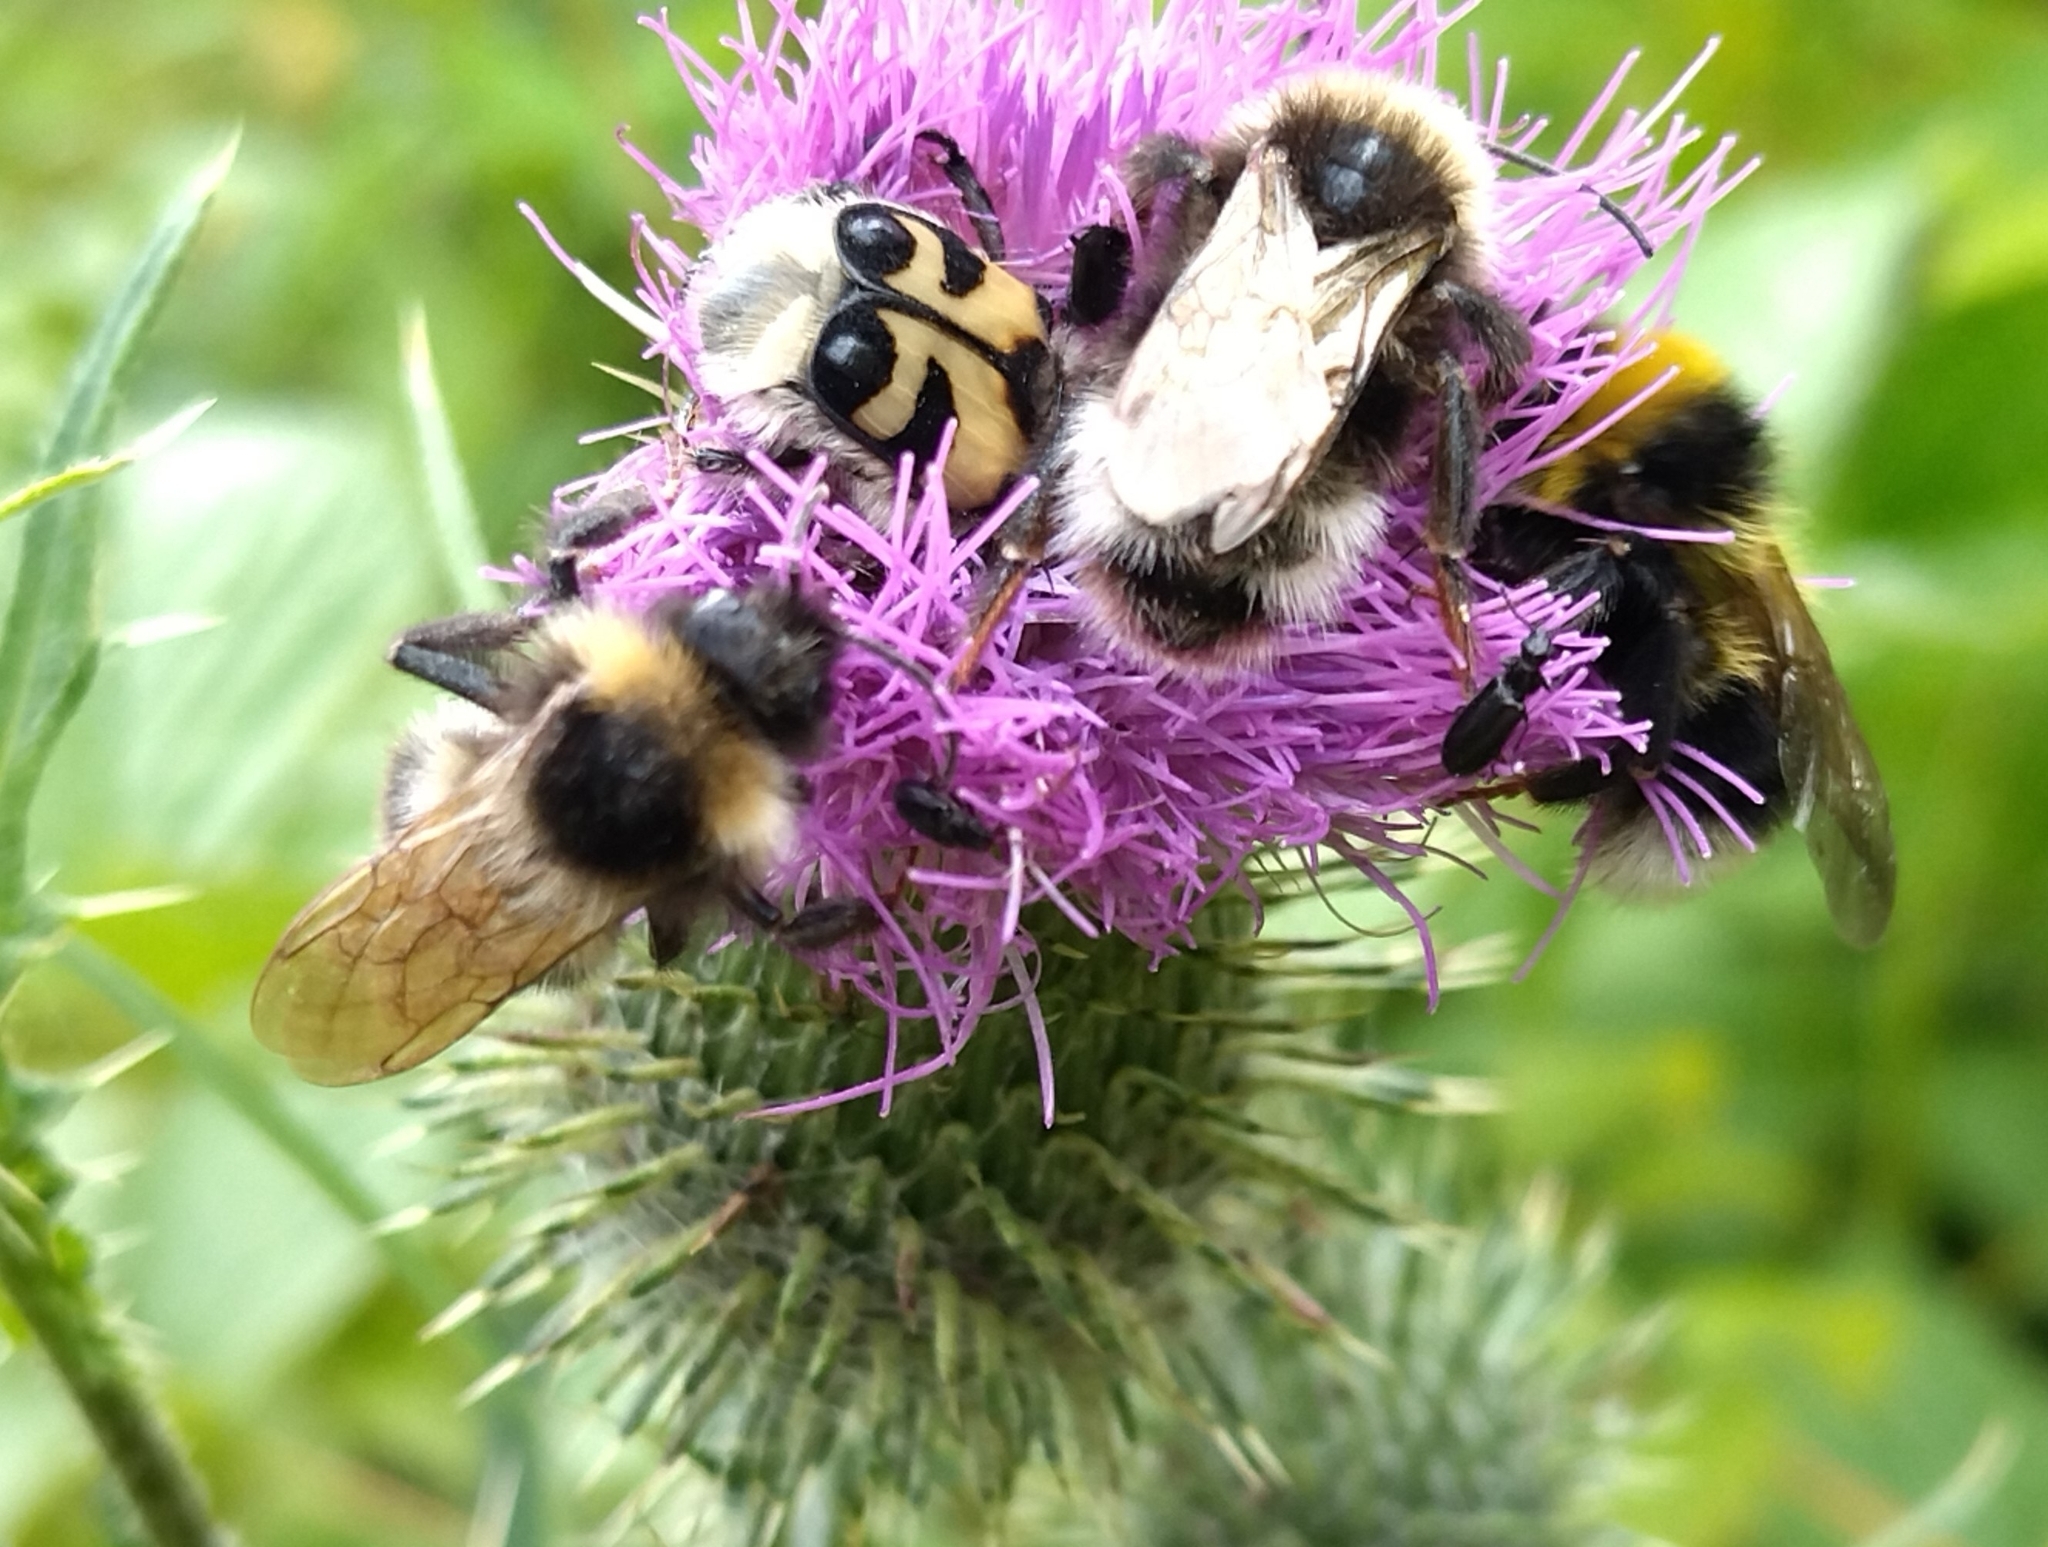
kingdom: Animalia
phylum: Arthropoda
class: Insecta
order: Hymenoptera
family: Apidae
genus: Bombus
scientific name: Bombus
